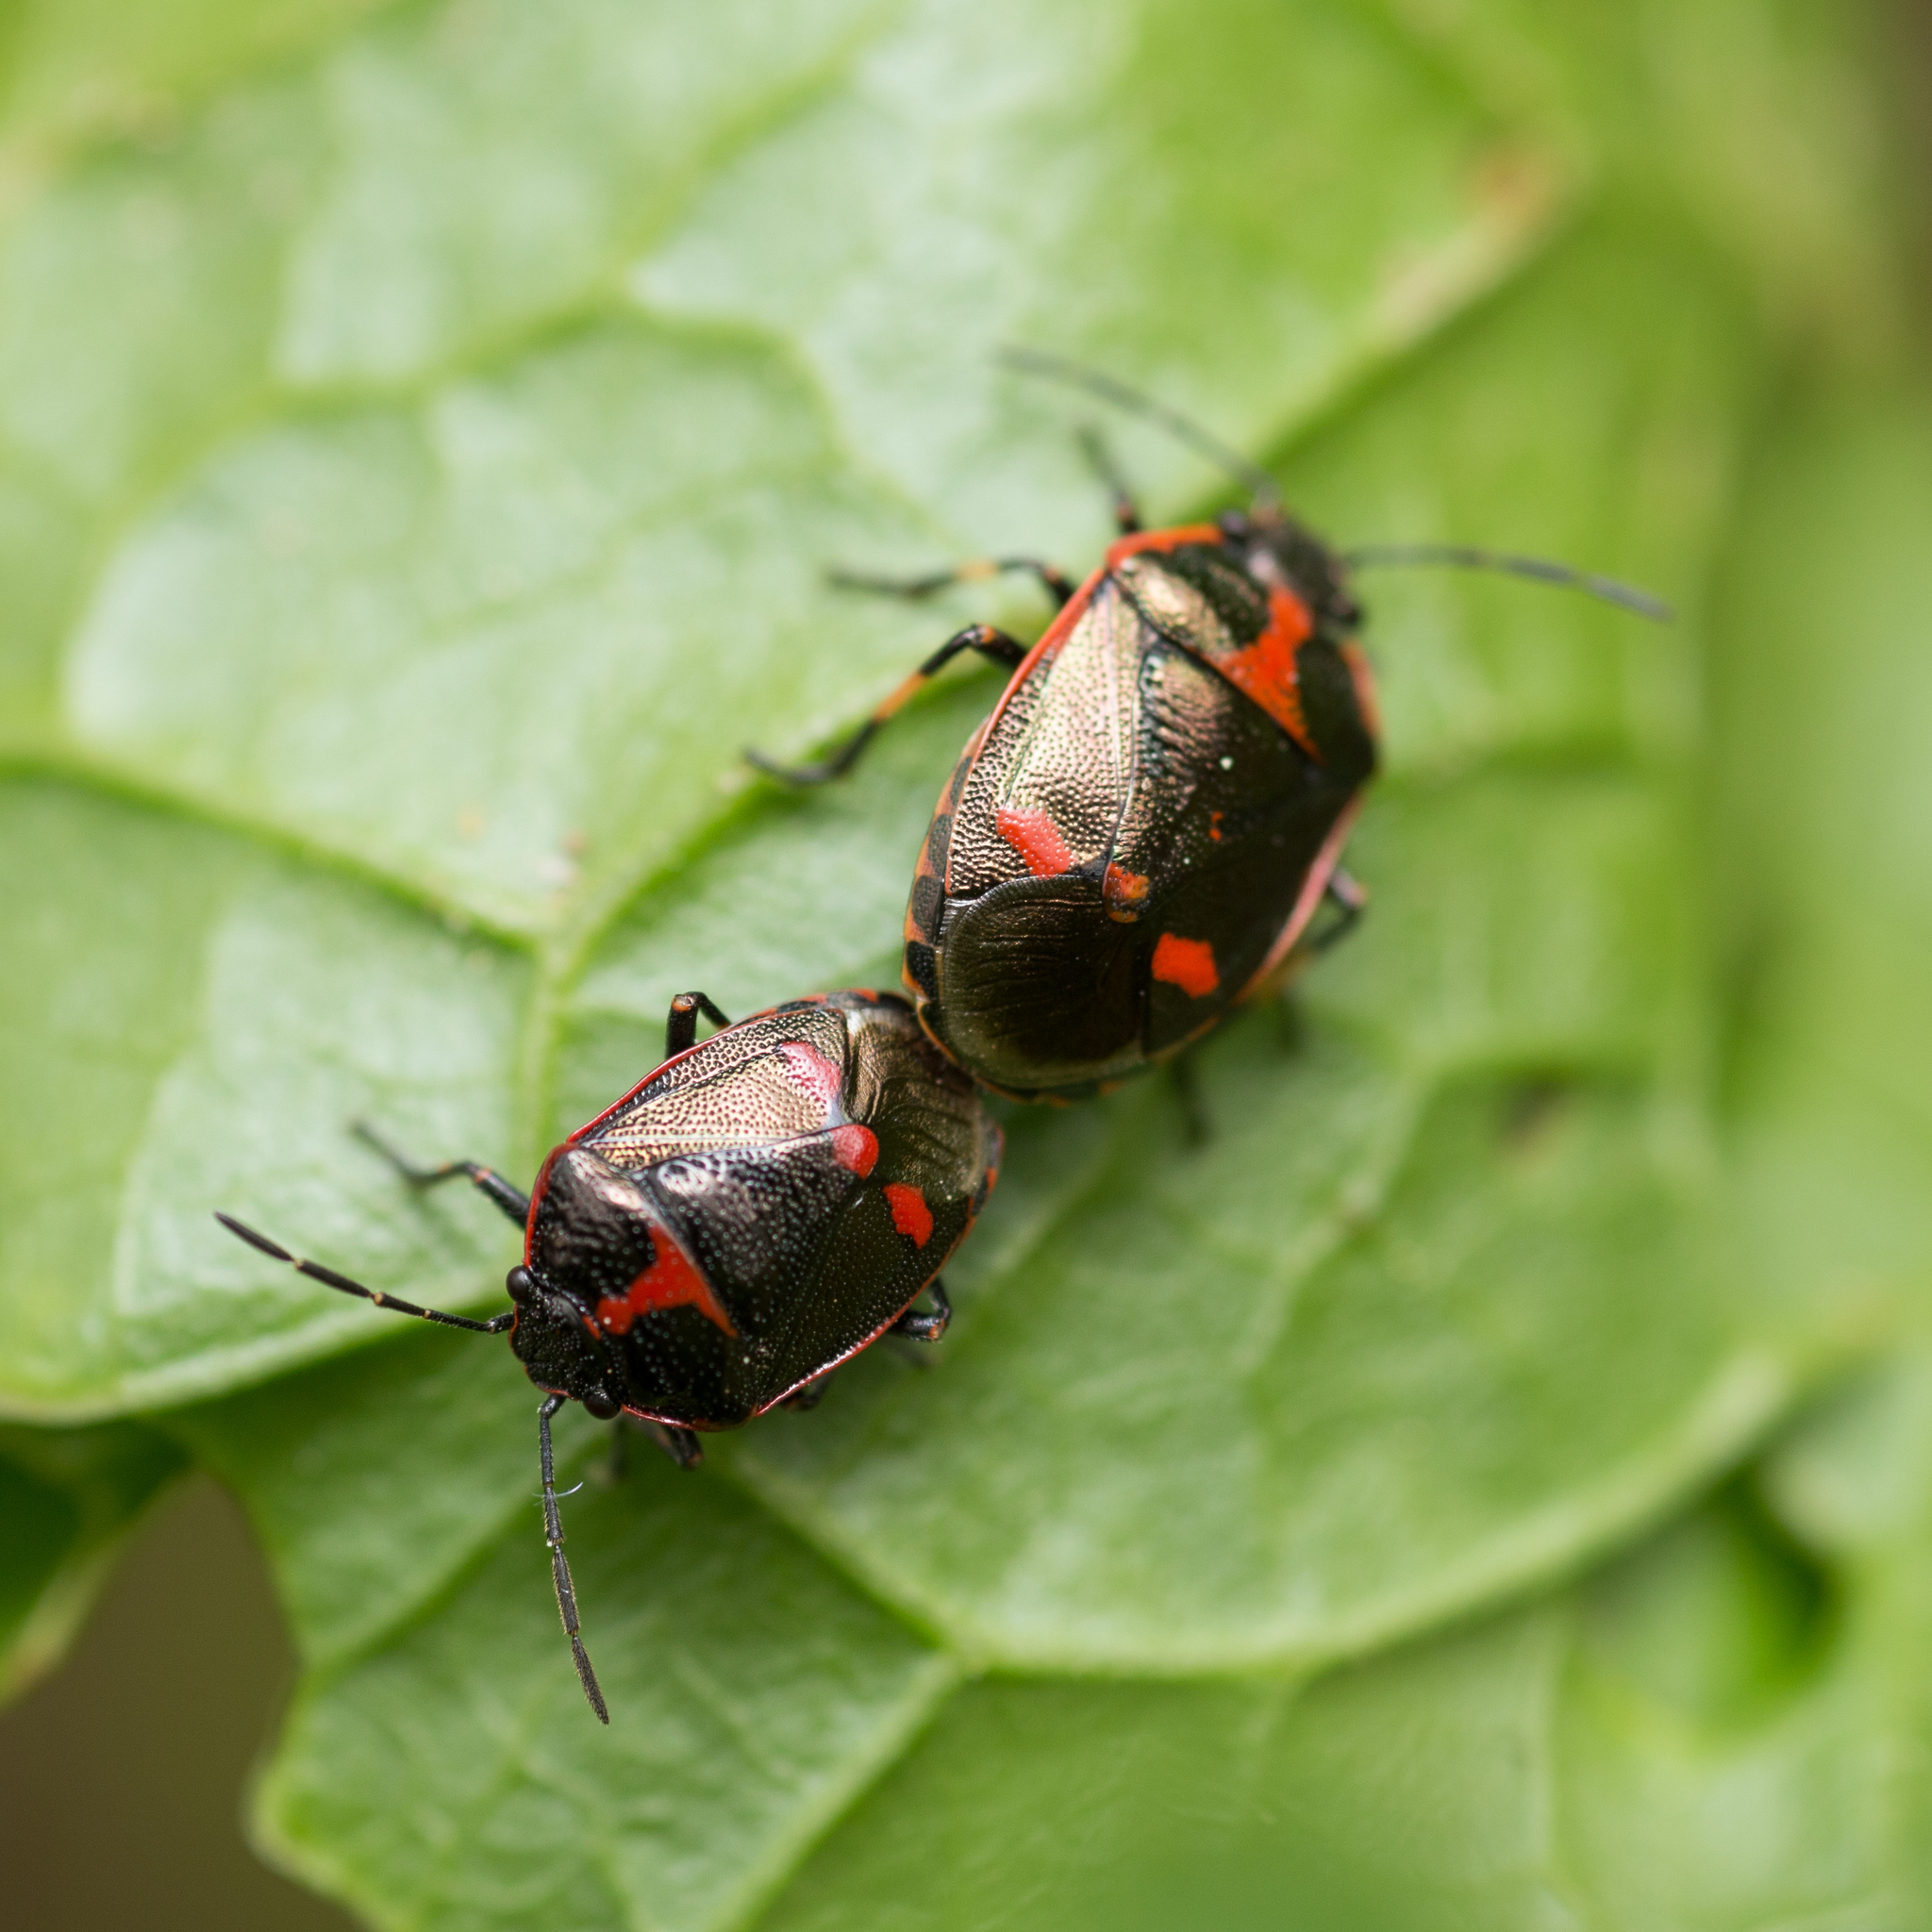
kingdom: Animalia
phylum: Arthropoda
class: Insecta
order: Hemiptera
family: Pentatomidae
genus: Eurydema
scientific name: Eurydema oleracea
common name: Cabbage bug
